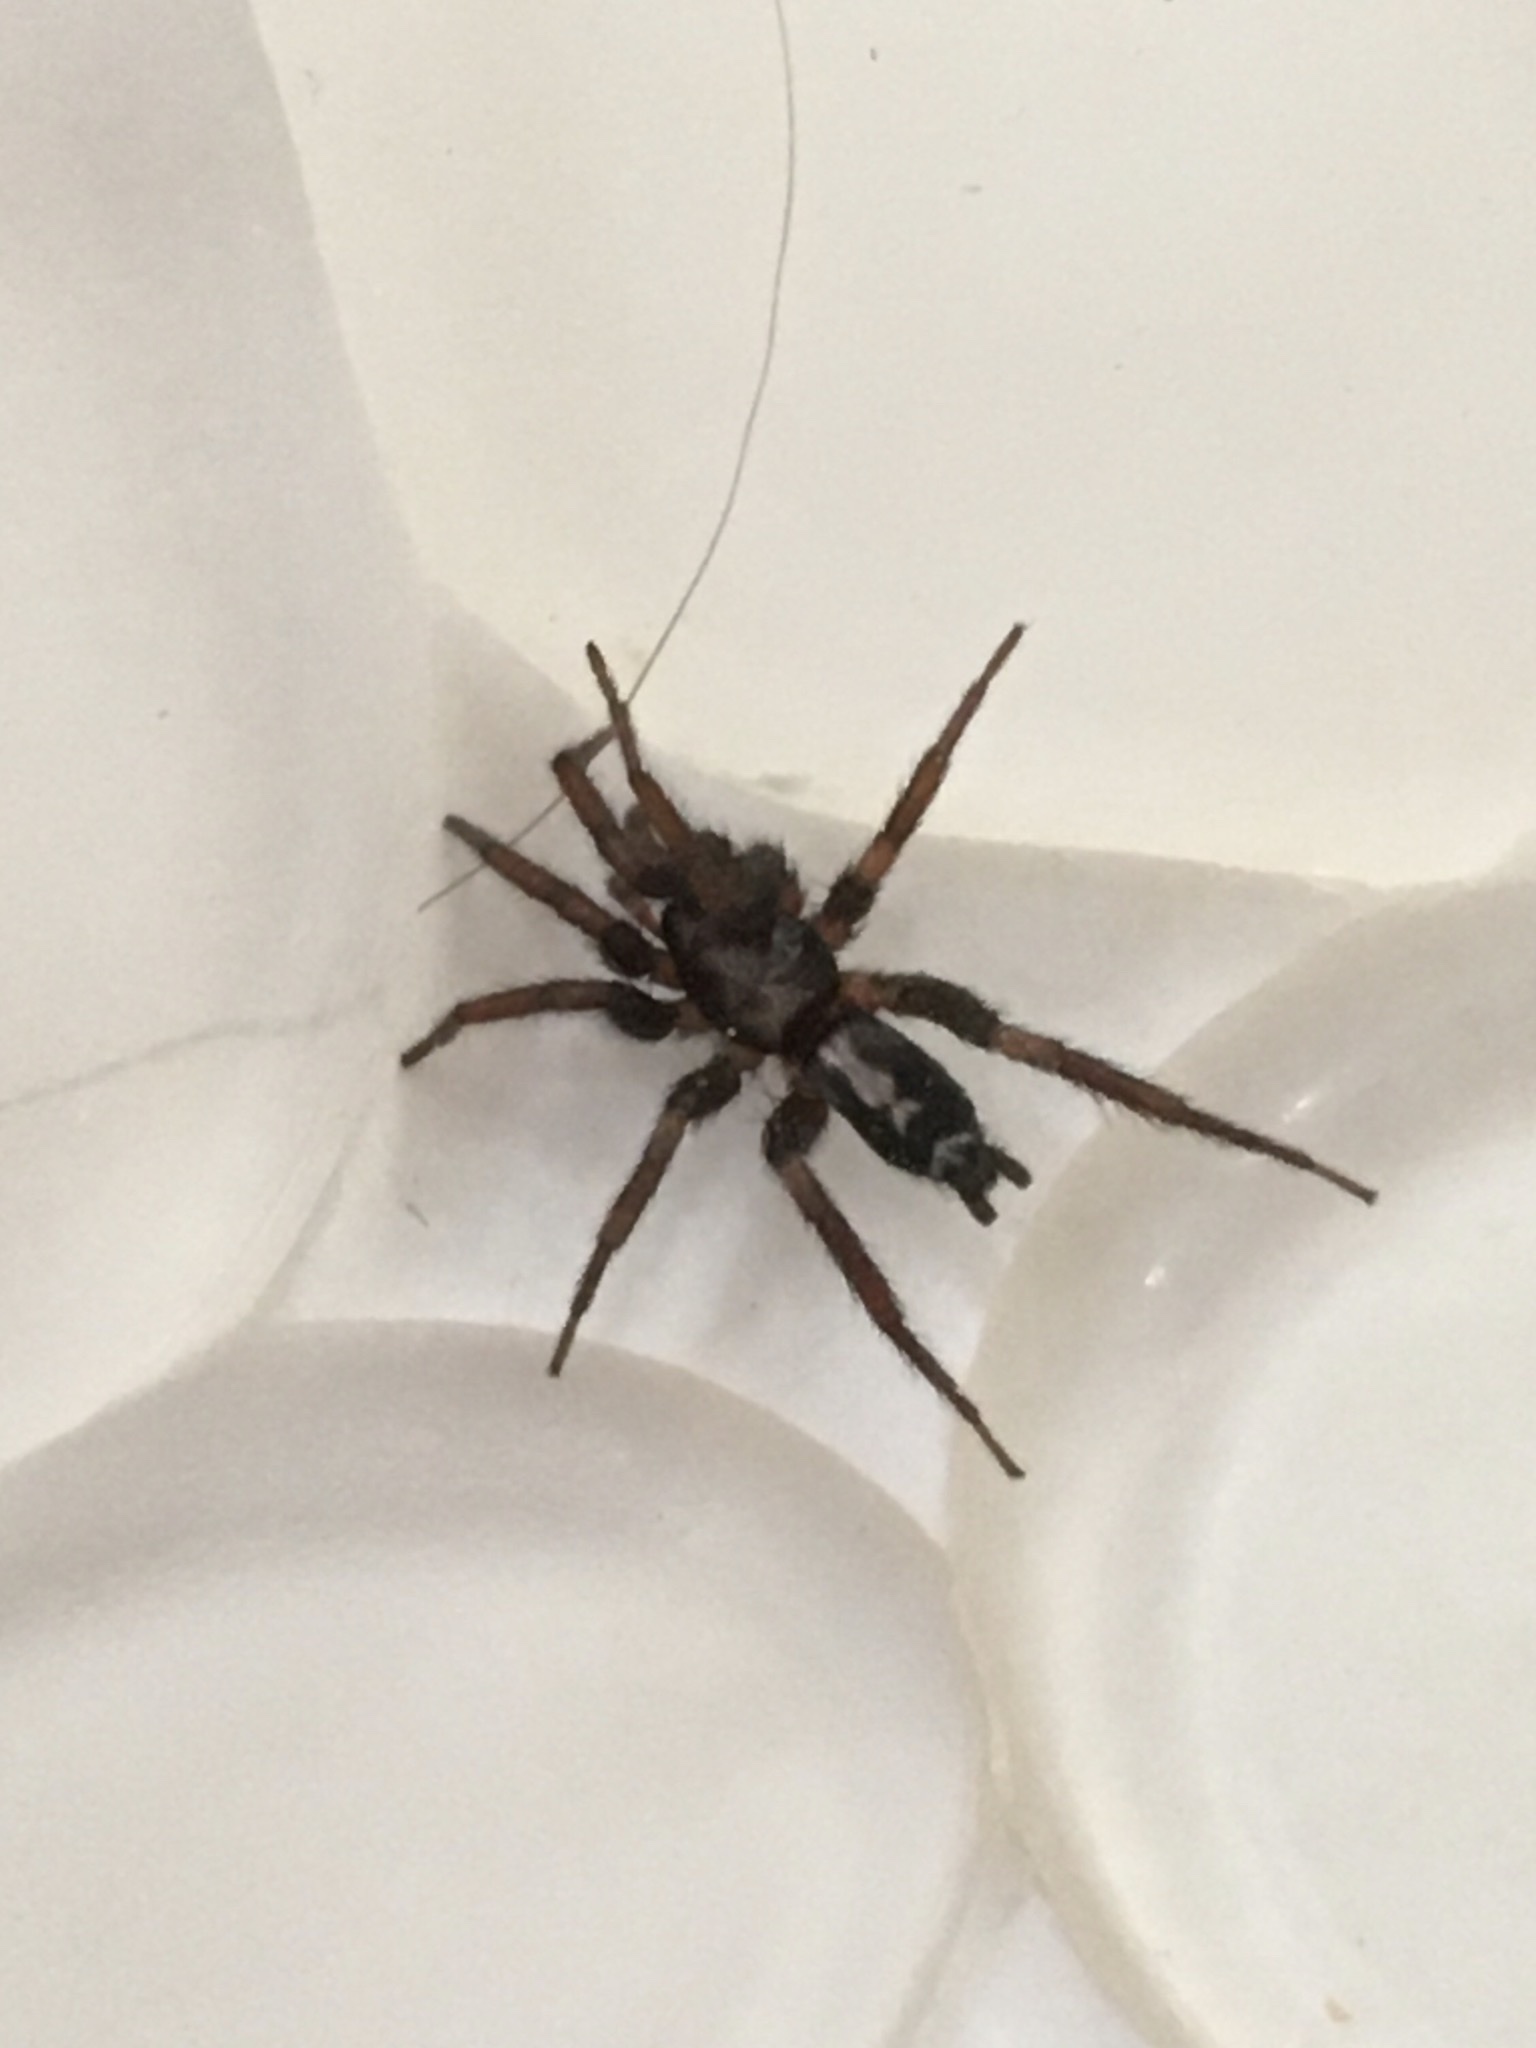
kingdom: Animalia
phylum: Arthropoda
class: Arachnida
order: Araneae
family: Gnaphosidae
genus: Herpyllus
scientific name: Herpyllus ecclesiasticus
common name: Eastern parson spider
